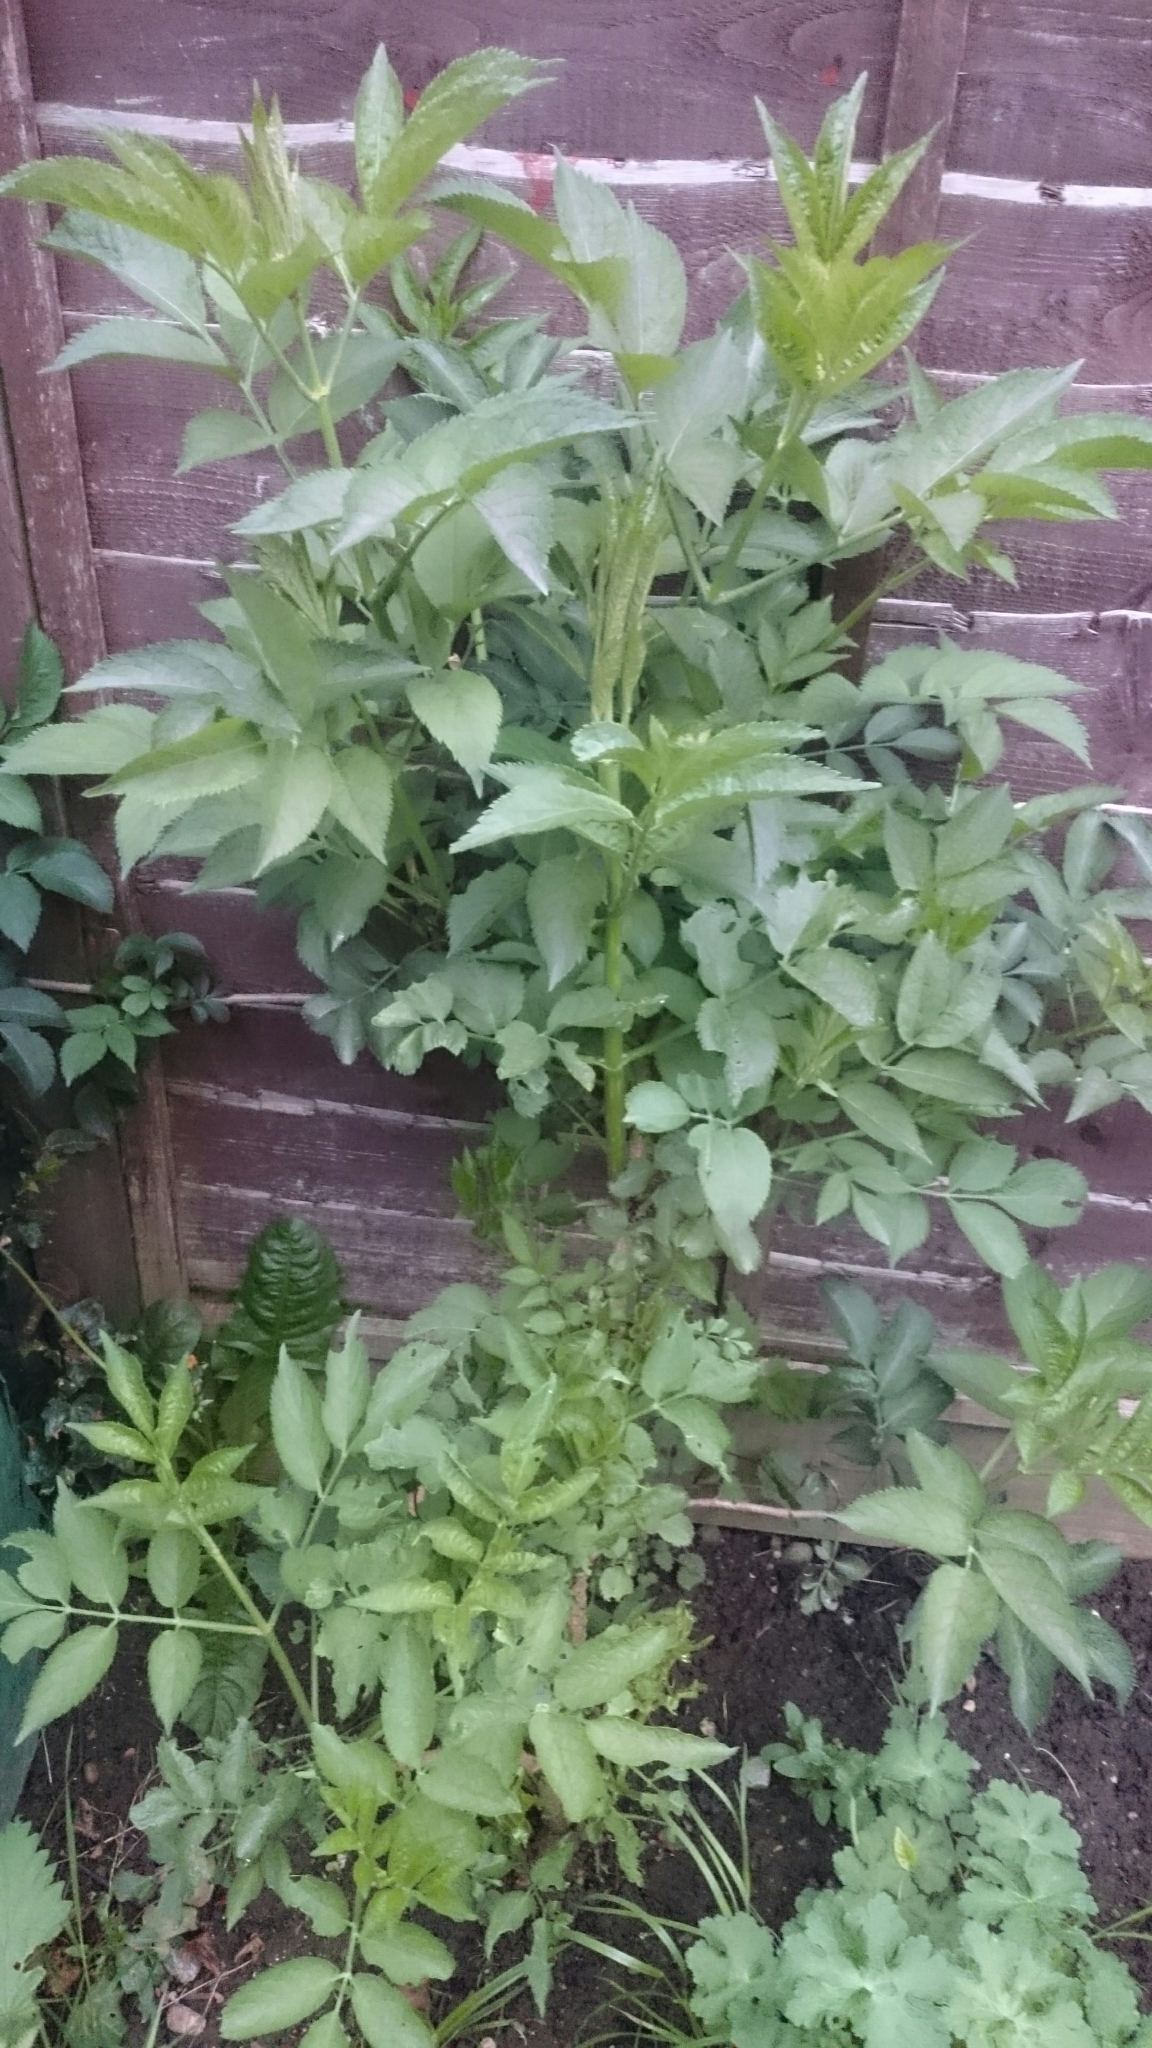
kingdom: Plantae
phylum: Tracheophyta
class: Magnoliopsida
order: Dipsacales
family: Viburnaceae
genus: Sambucus
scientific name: Sambucus nigra
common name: Elder
